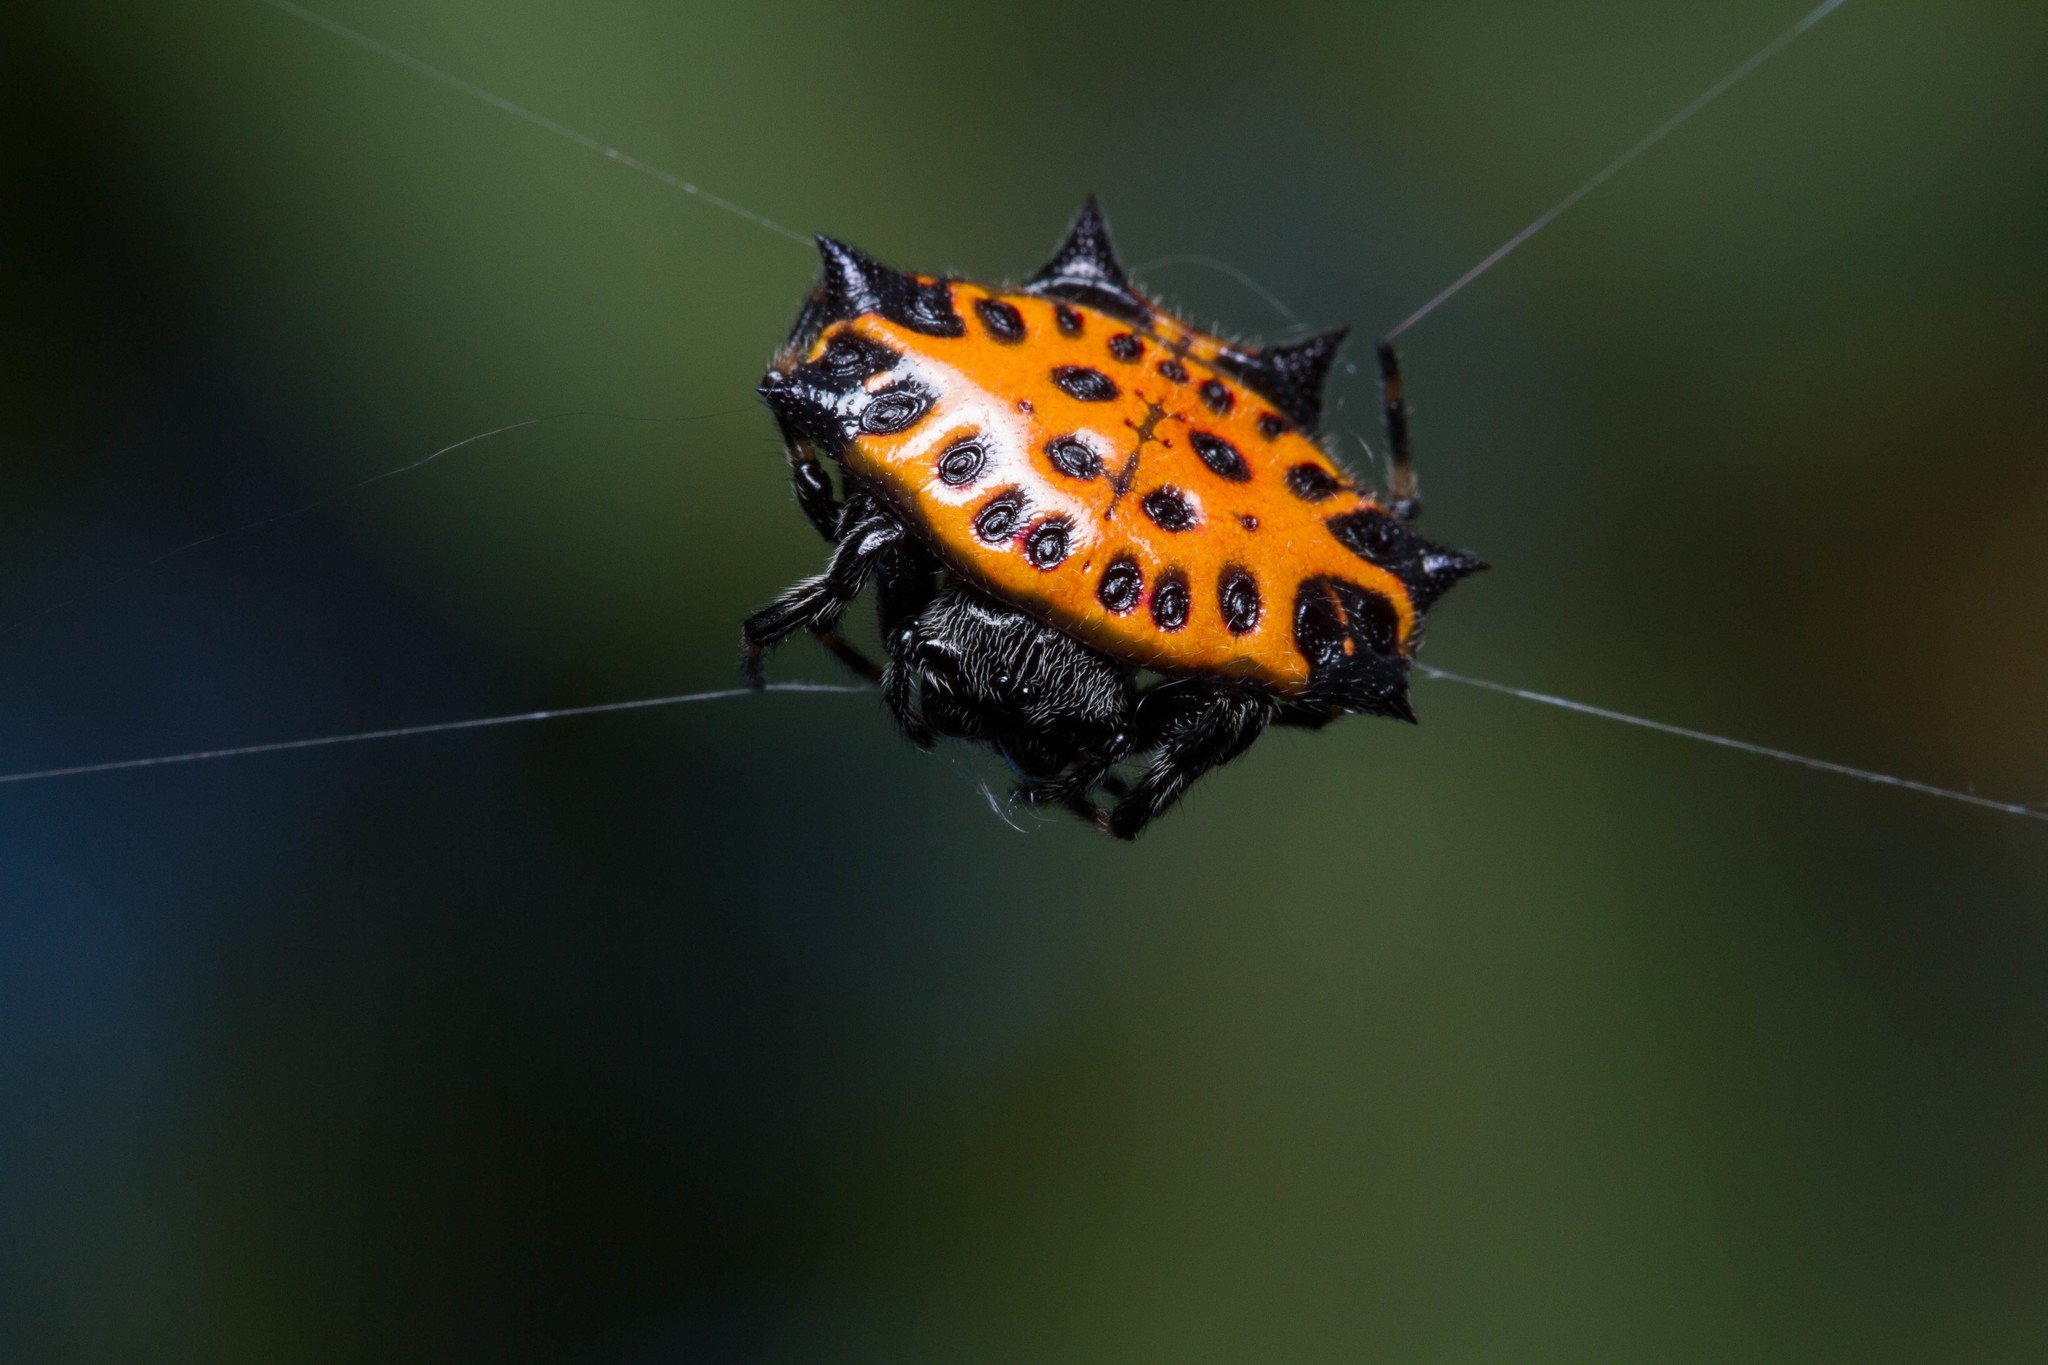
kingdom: Animalia
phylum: Arthropoda
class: Arachnida
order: Araneae
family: Araneidae
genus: Gasteracantha
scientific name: Gasteracantha cancriformis
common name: Orb weavers
